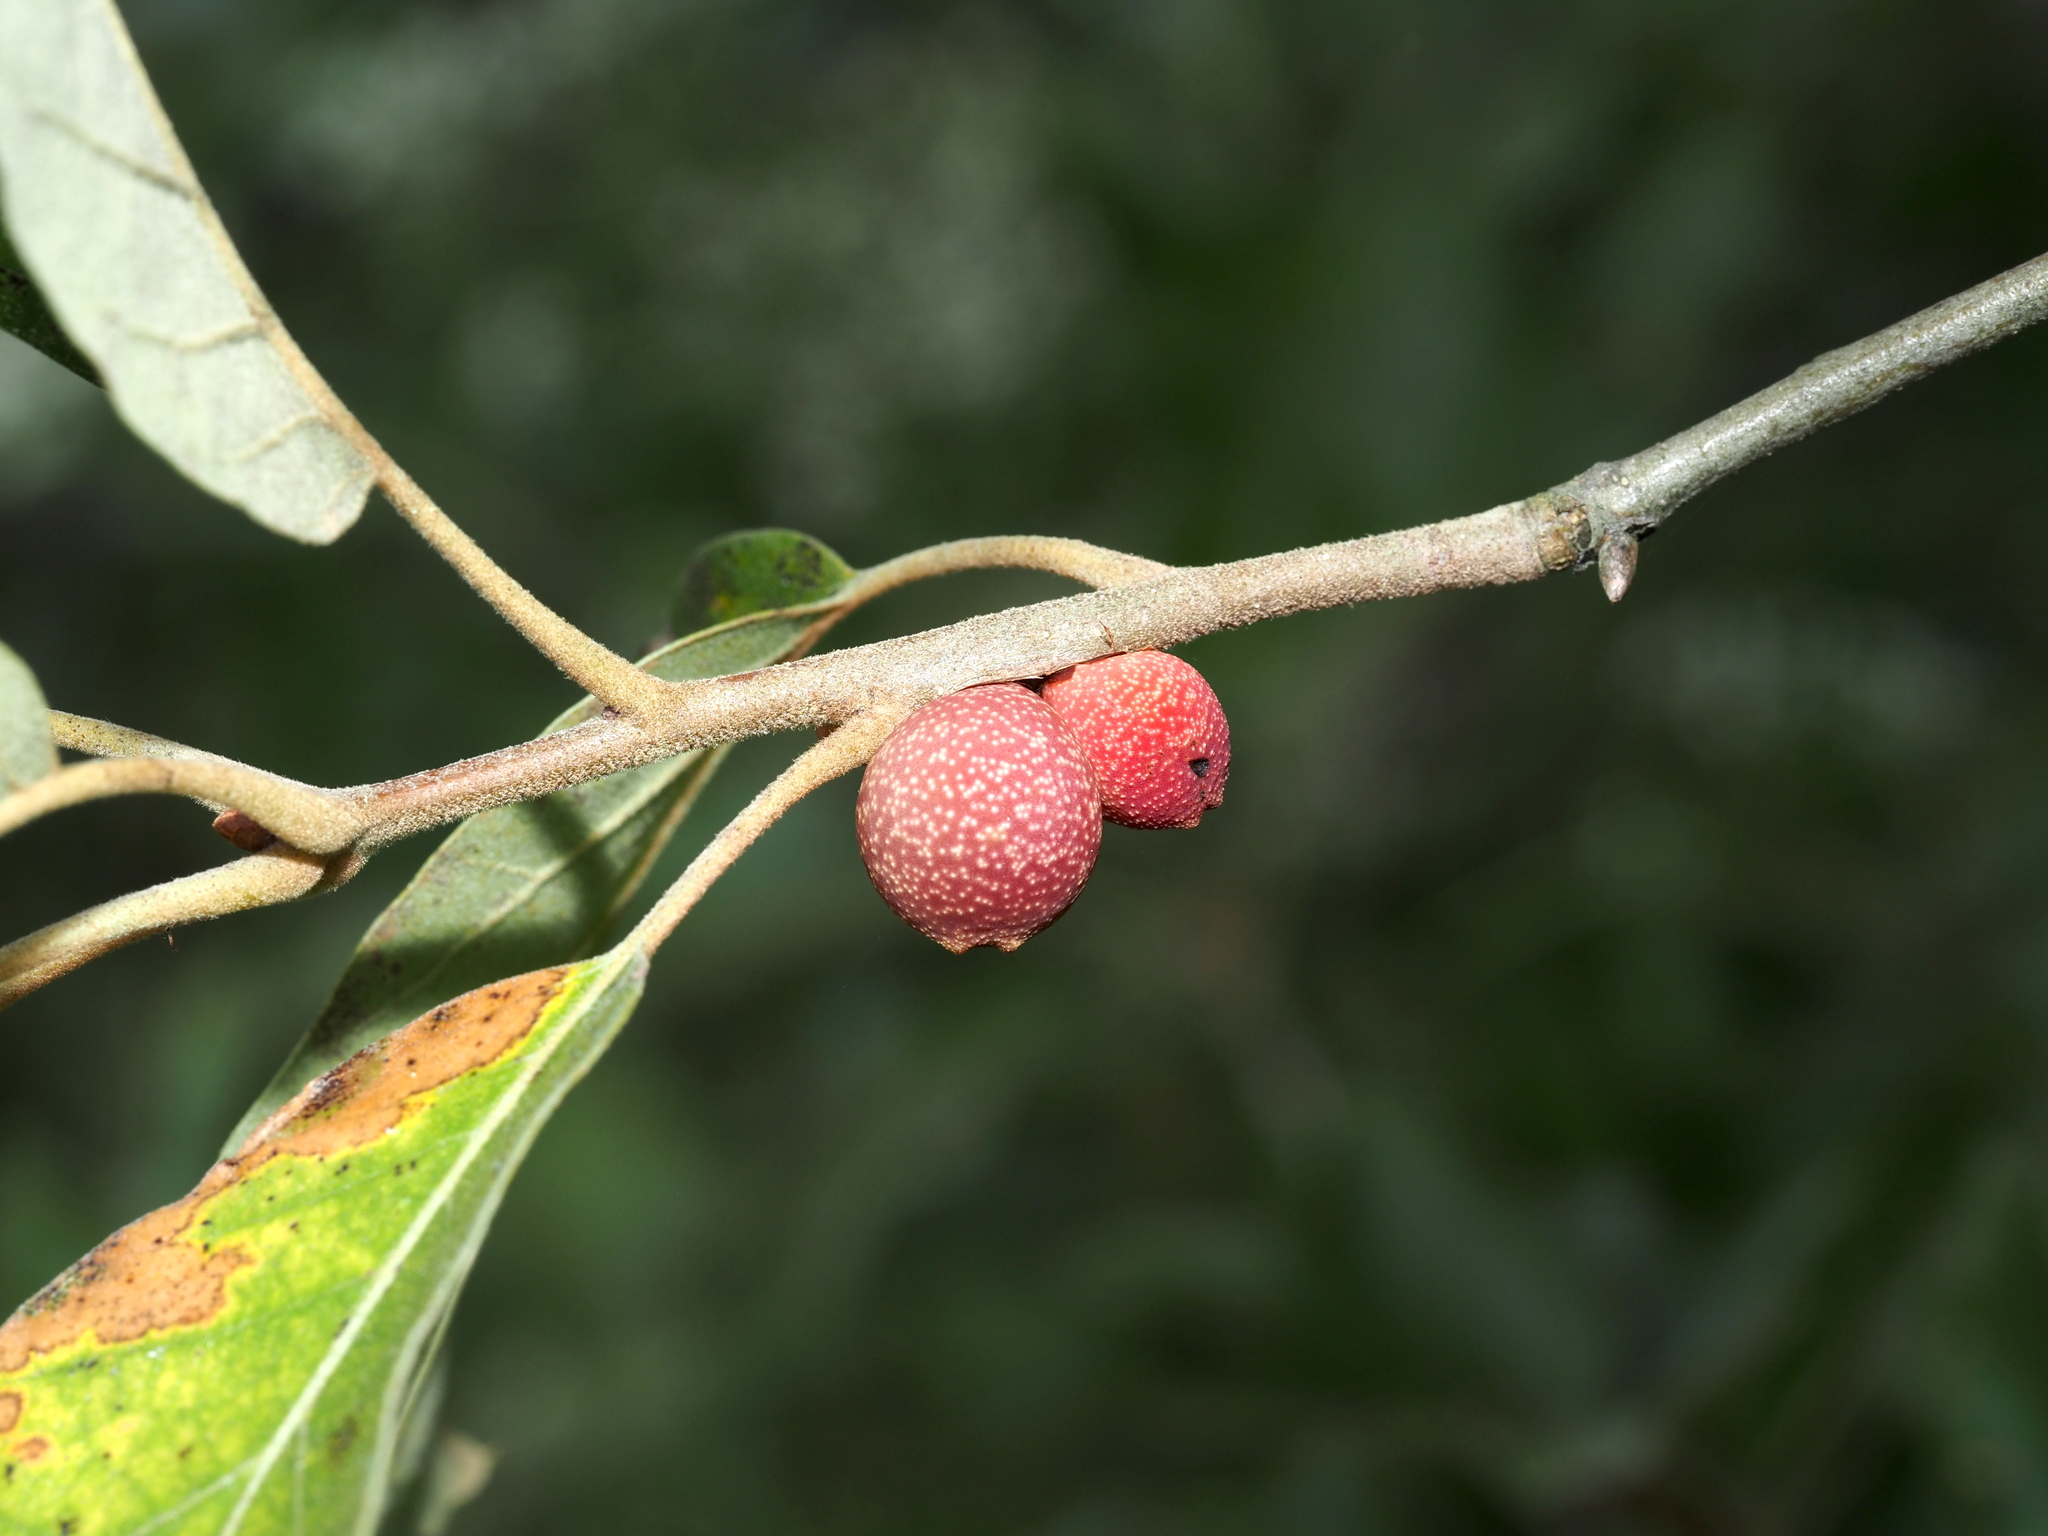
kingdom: Animalia
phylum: Arthropoda
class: Insecta
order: Hymenoptera
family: Cynipidae
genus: Kokkocynips
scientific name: Kokkocynips imbricariae
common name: Banded bullet gall wasp
